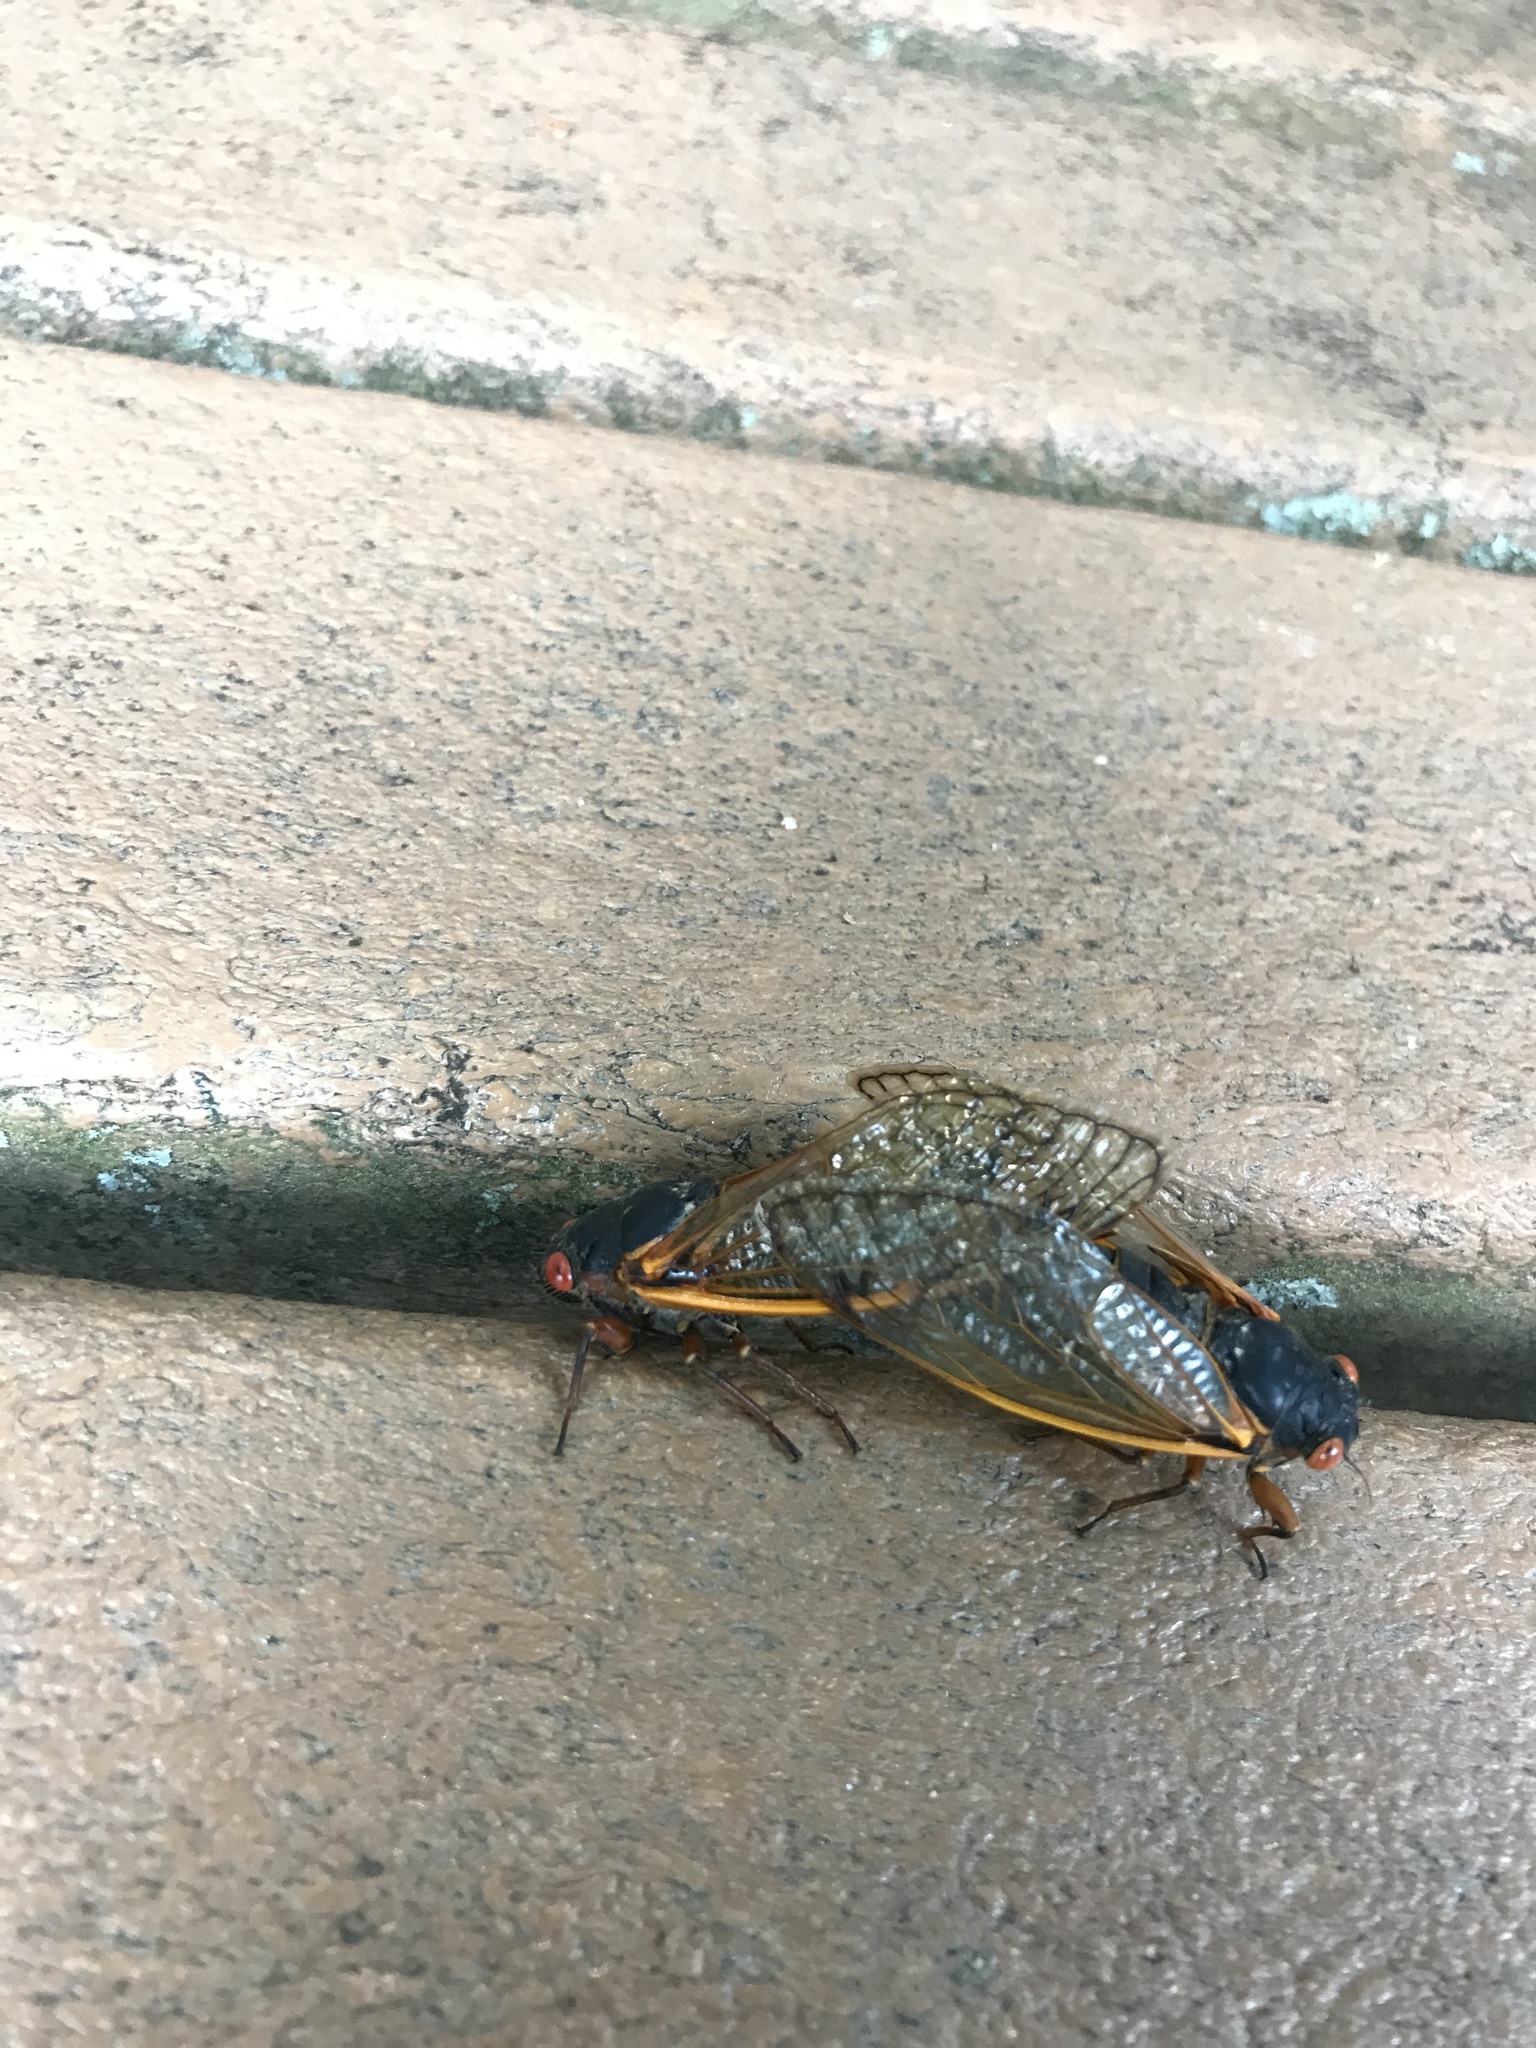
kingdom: Animalia
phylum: Arthropoda
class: Insecta
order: Hemiptera
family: Cicadidae
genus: Magicicada
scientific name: Magicicada septendecim
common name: Periodical cicada
